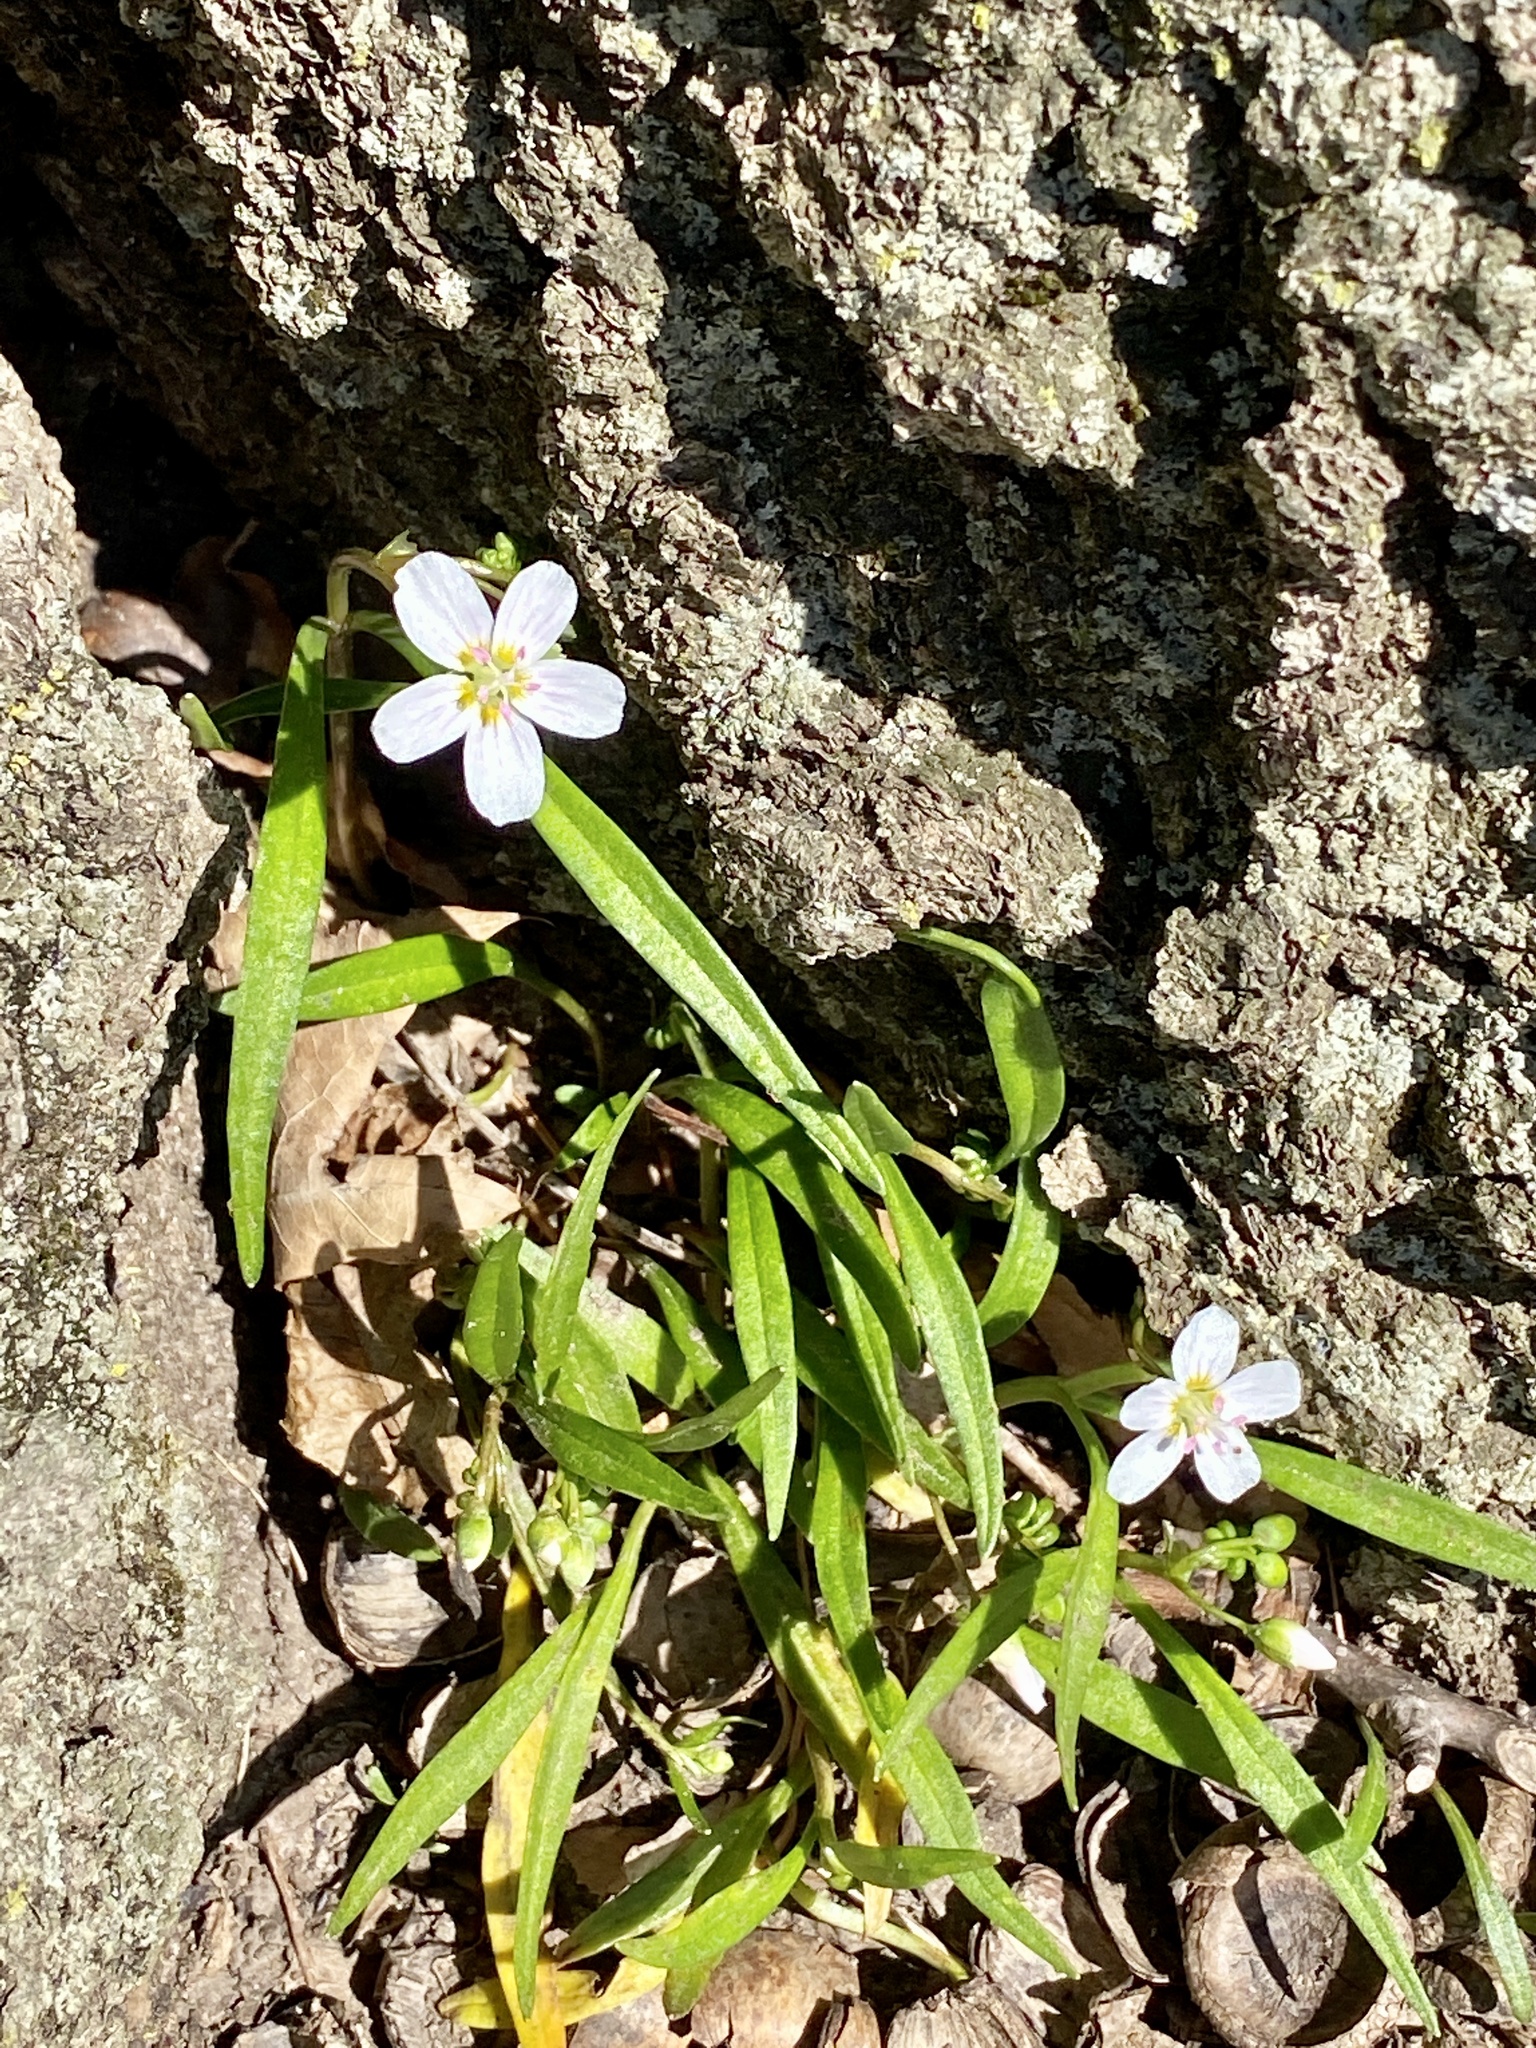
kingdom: Plantae
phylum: Tracheophyta
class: Magnoliopsida
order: Caryophyllales
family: Montiaceae
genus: Claytonia
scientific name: Claytonia virginica
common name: Virginia springbeauty
